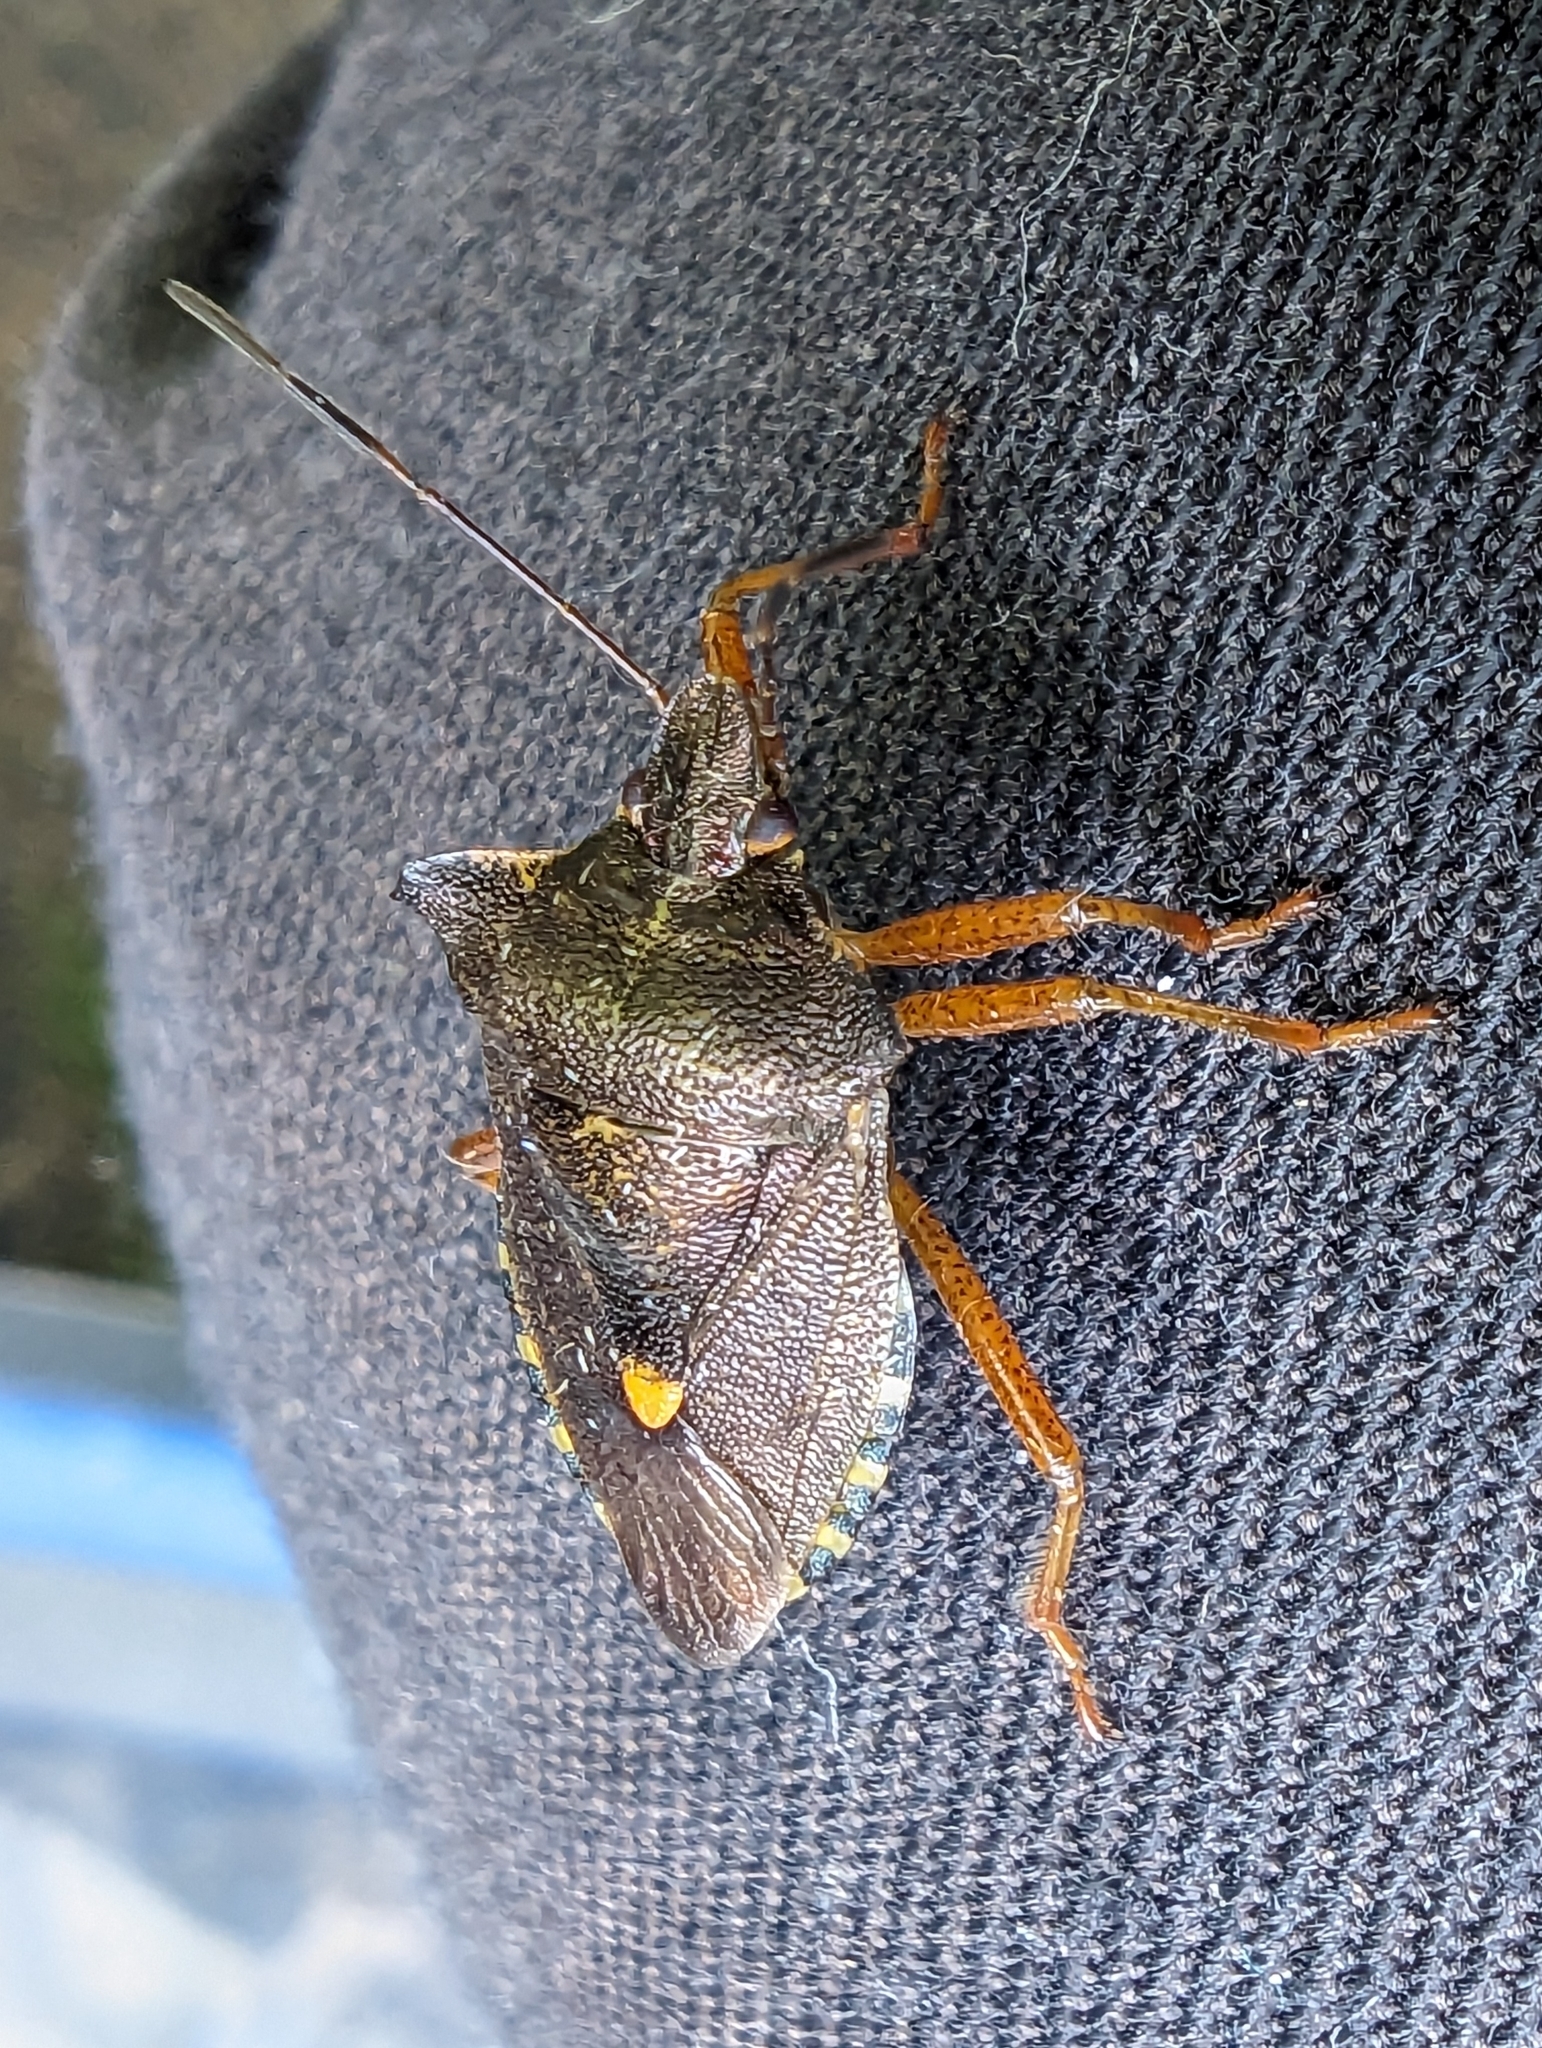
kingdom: Animalia
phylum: Arthropoda
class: Insecta
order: Hemiptera
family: Pentatomidae
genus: Pentatoma
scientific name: Pentatoma rufipes
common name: Forest bug
